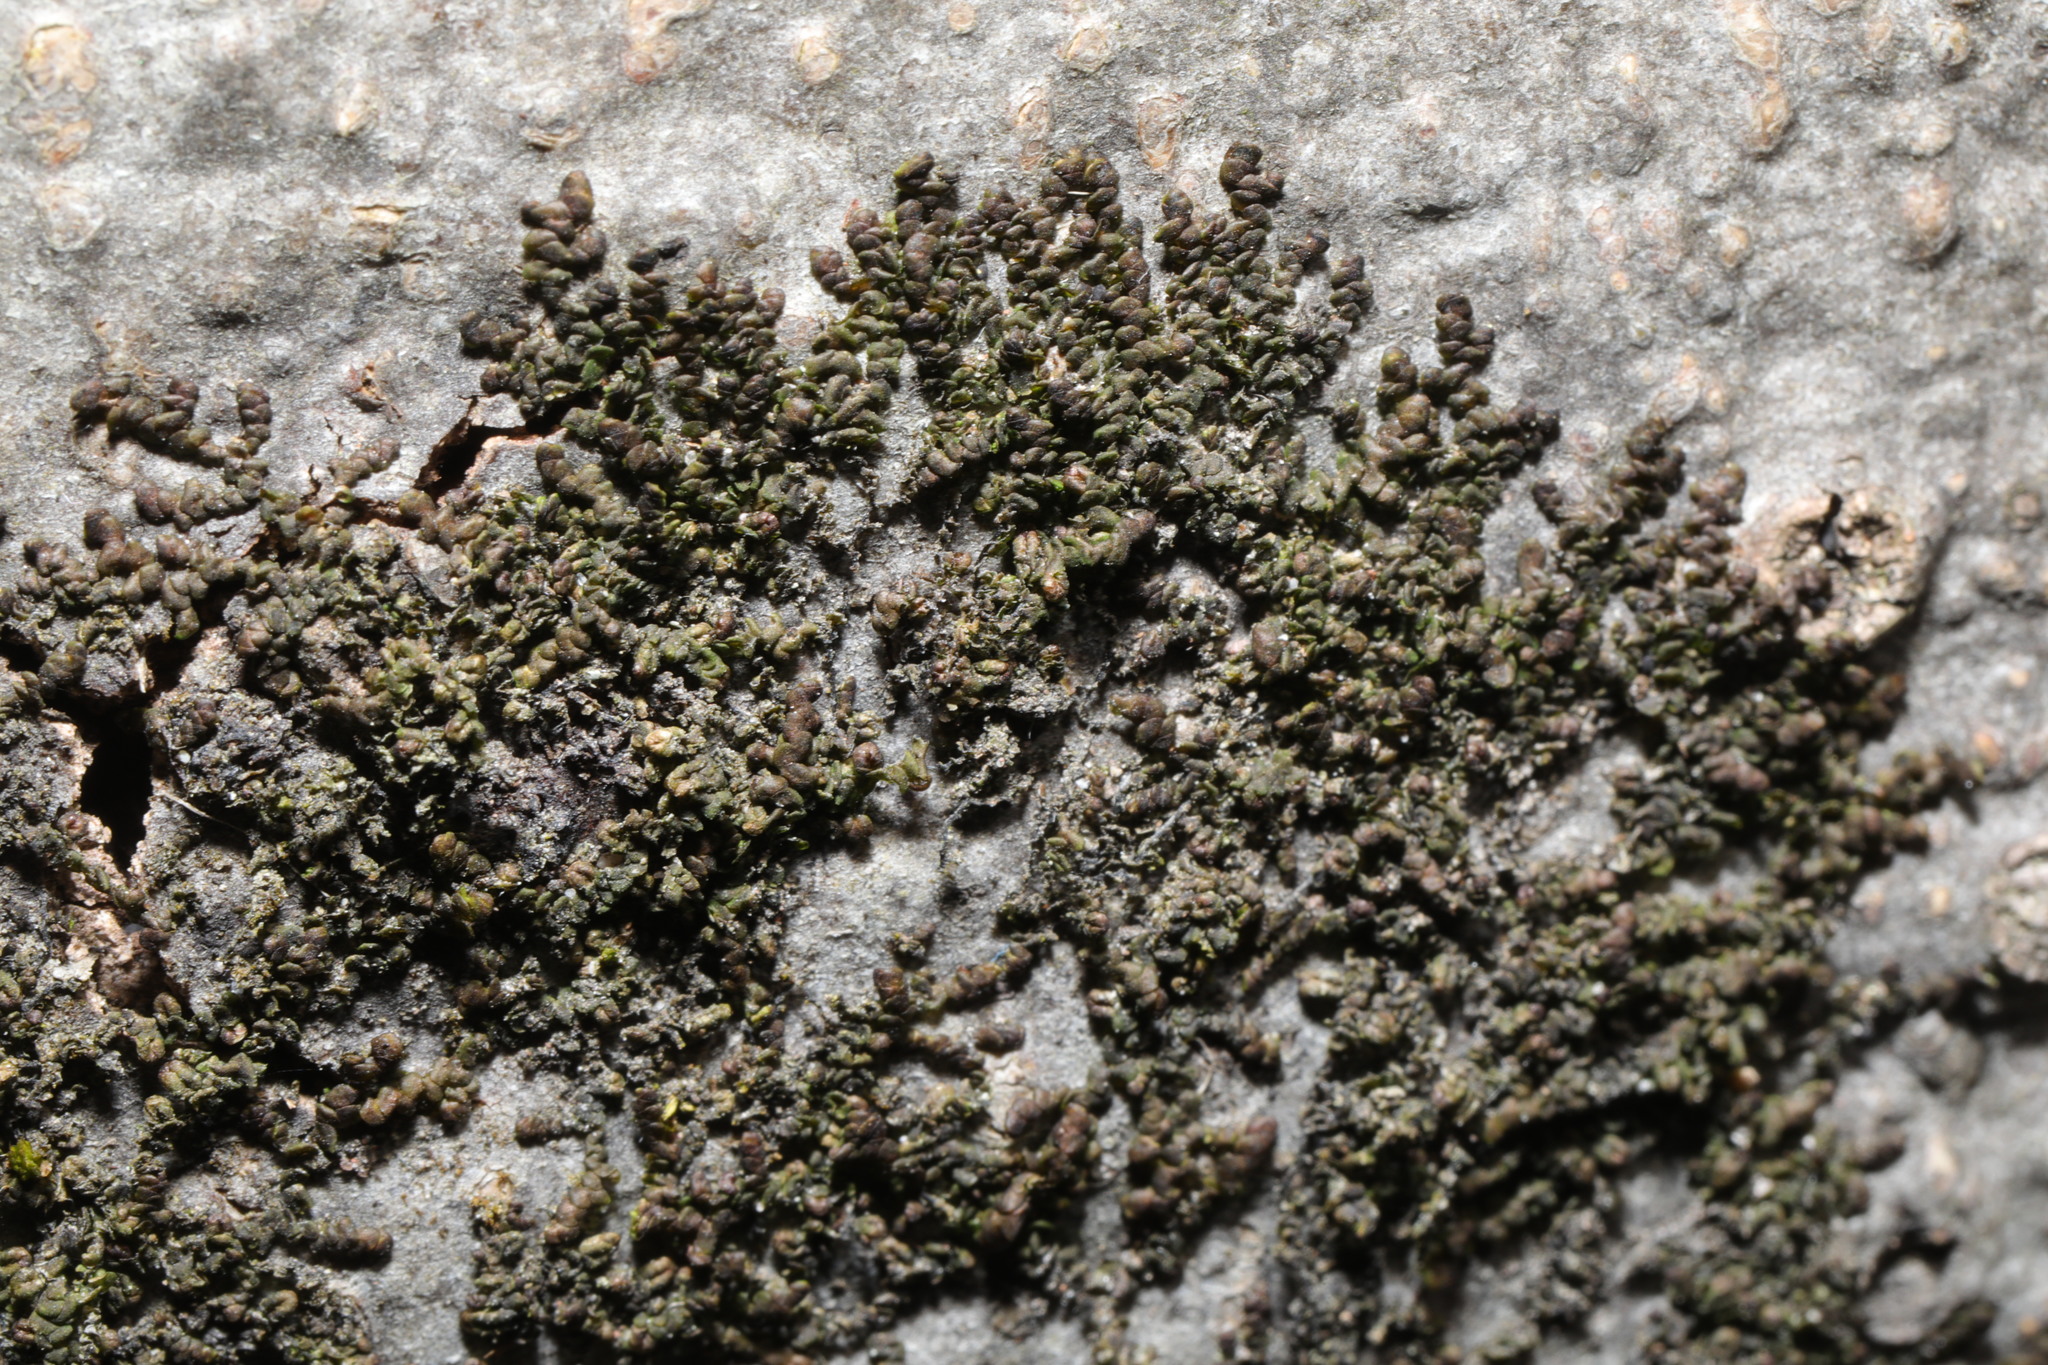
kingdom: Plantae
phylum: Marchantiophyta
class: Jungermanniopsida
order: Porellales
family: Frullaniaceae
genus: Frullania
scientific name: Frullania dilatata
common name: Dilated scalewort
